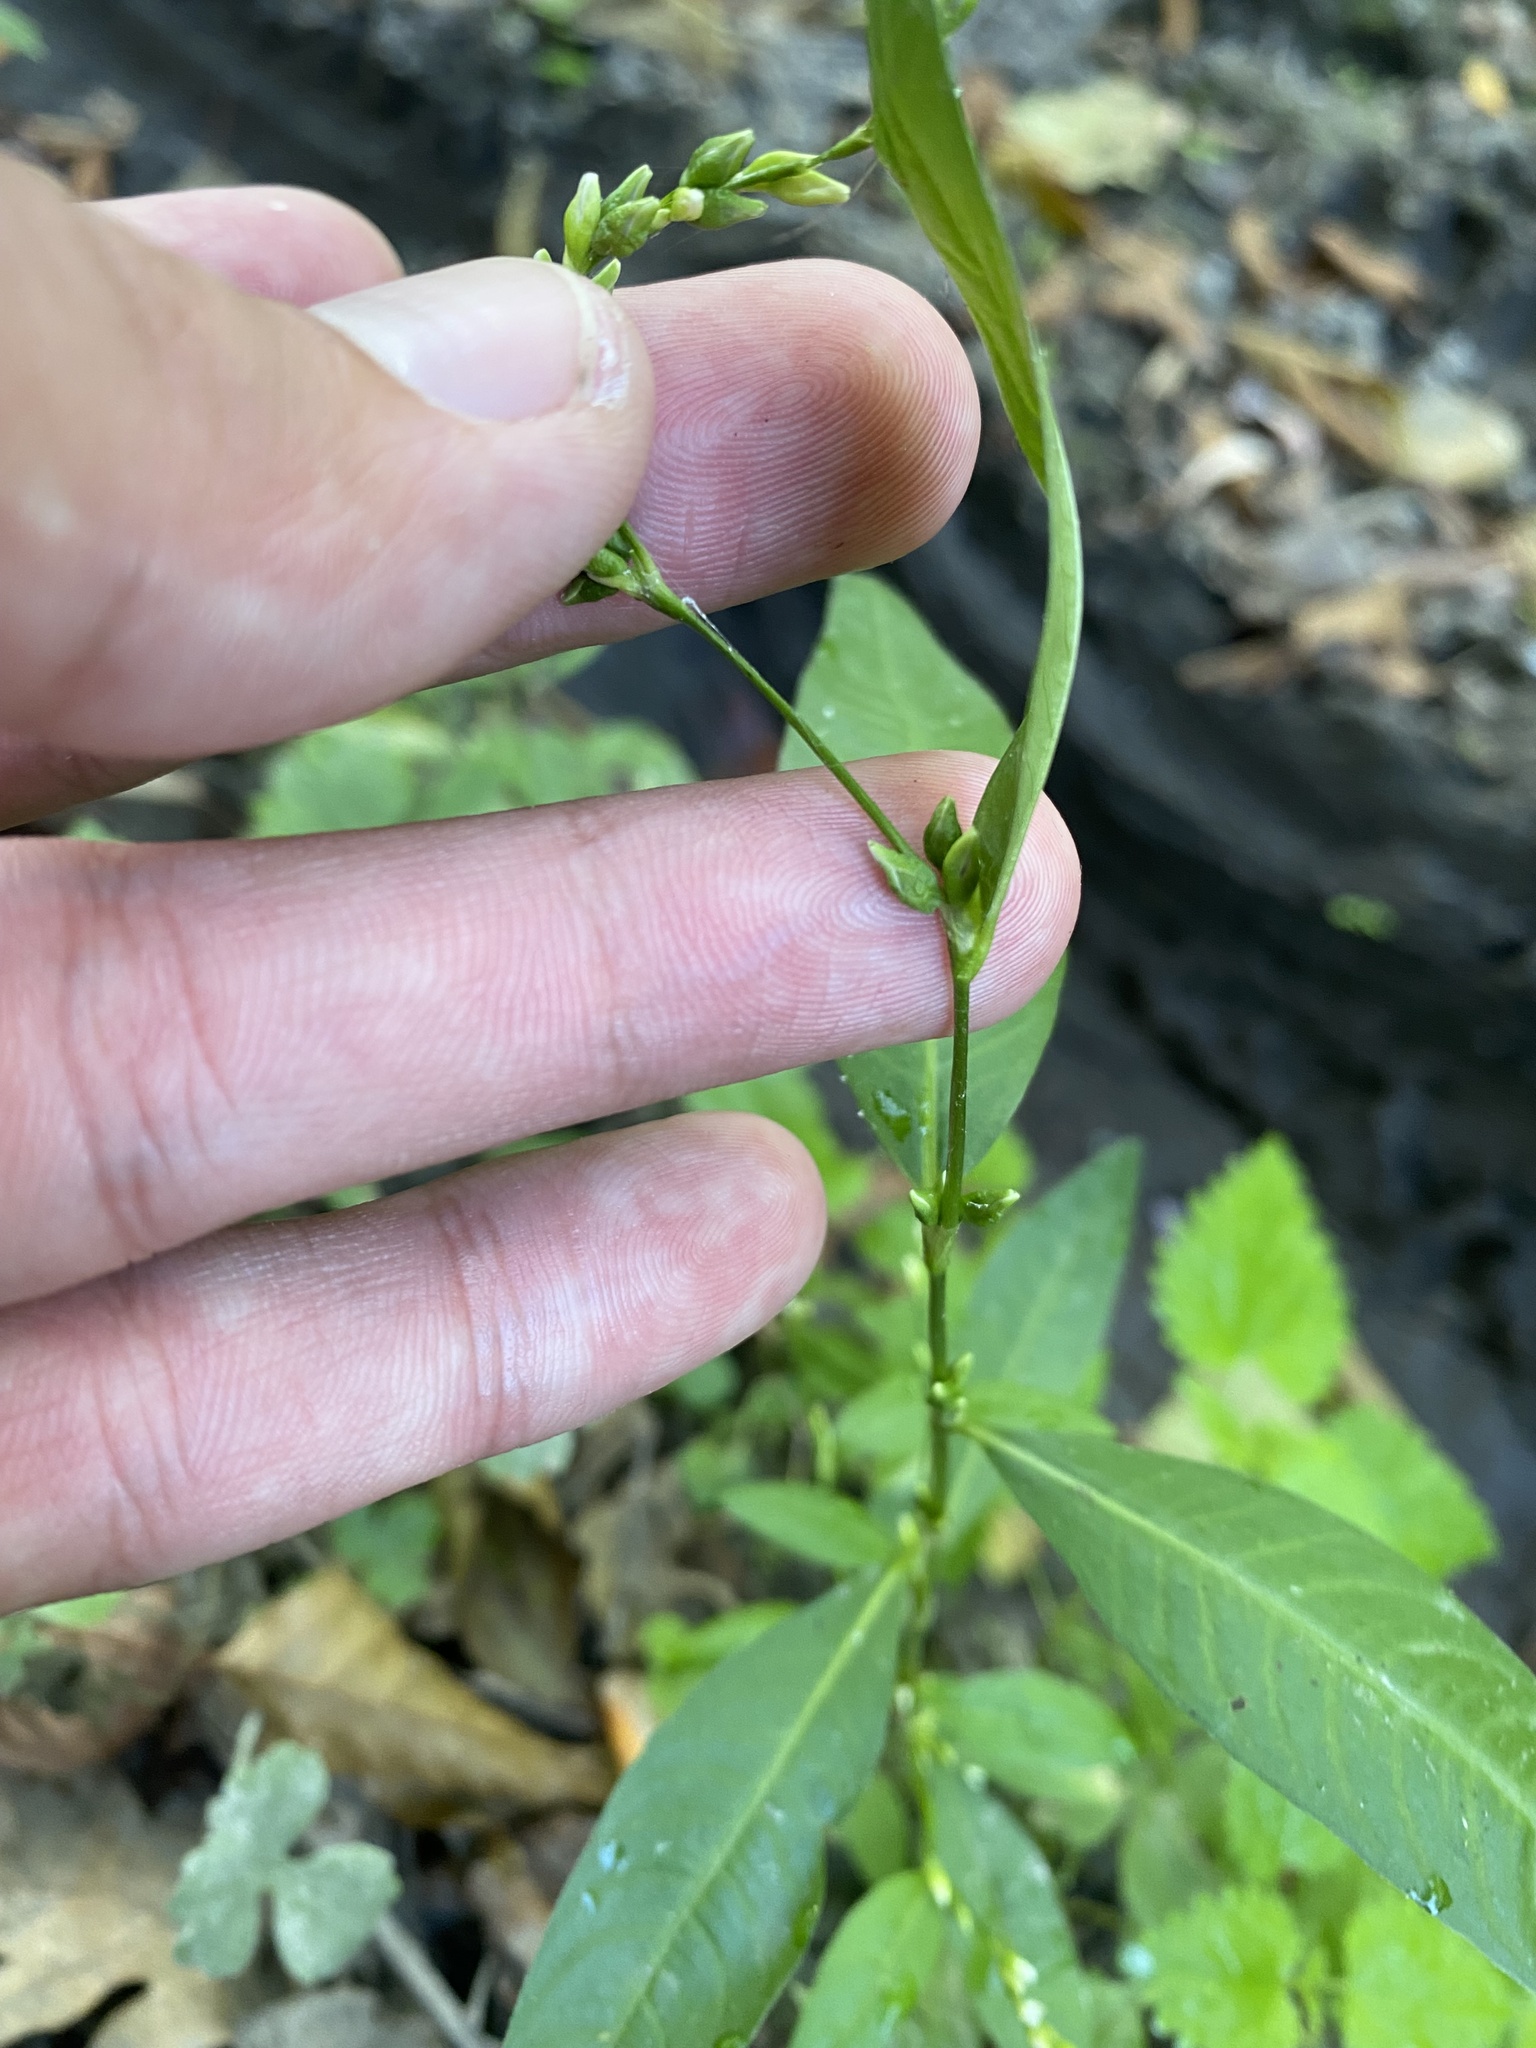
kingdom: Plantae
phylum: Tracheophyta
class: Magnoliopsida
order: Caryophyllales
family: Polygonaceae
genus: Persicaria
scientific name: Persicaria hydropiper
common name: Water-pepper
